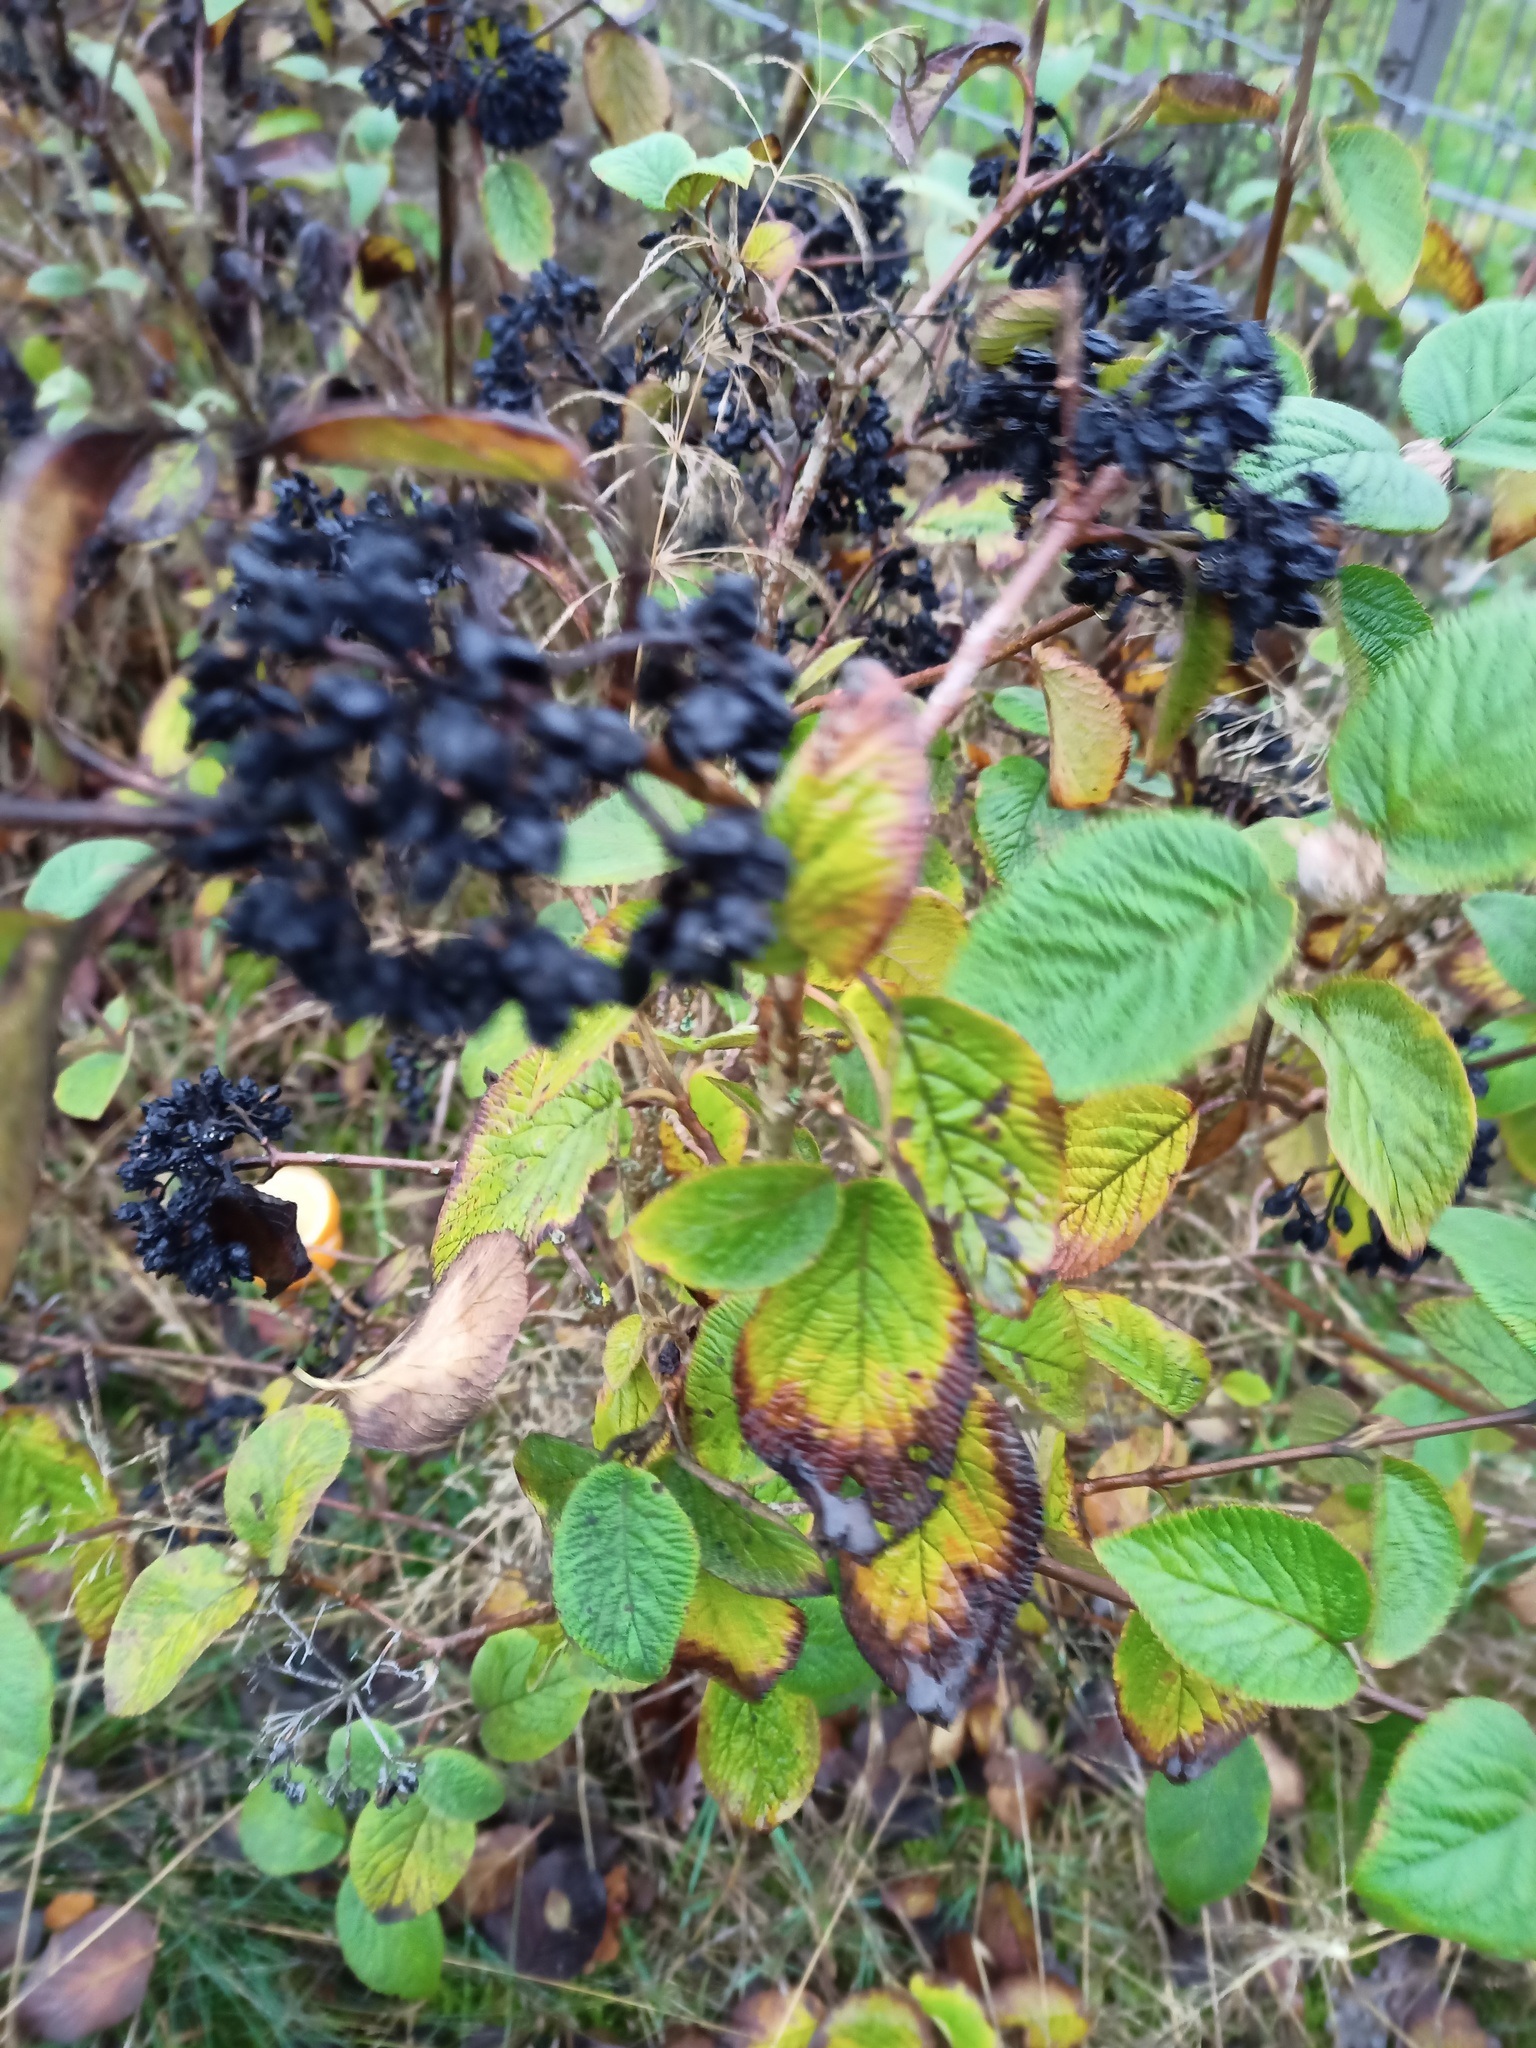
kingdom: Plantae
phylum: Tracheophyta
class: Magnoliopsida
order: Dipsacales
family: Viburnaceae
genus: Viburnum
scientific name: Viburnum lantana
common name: Wayfaring tree
